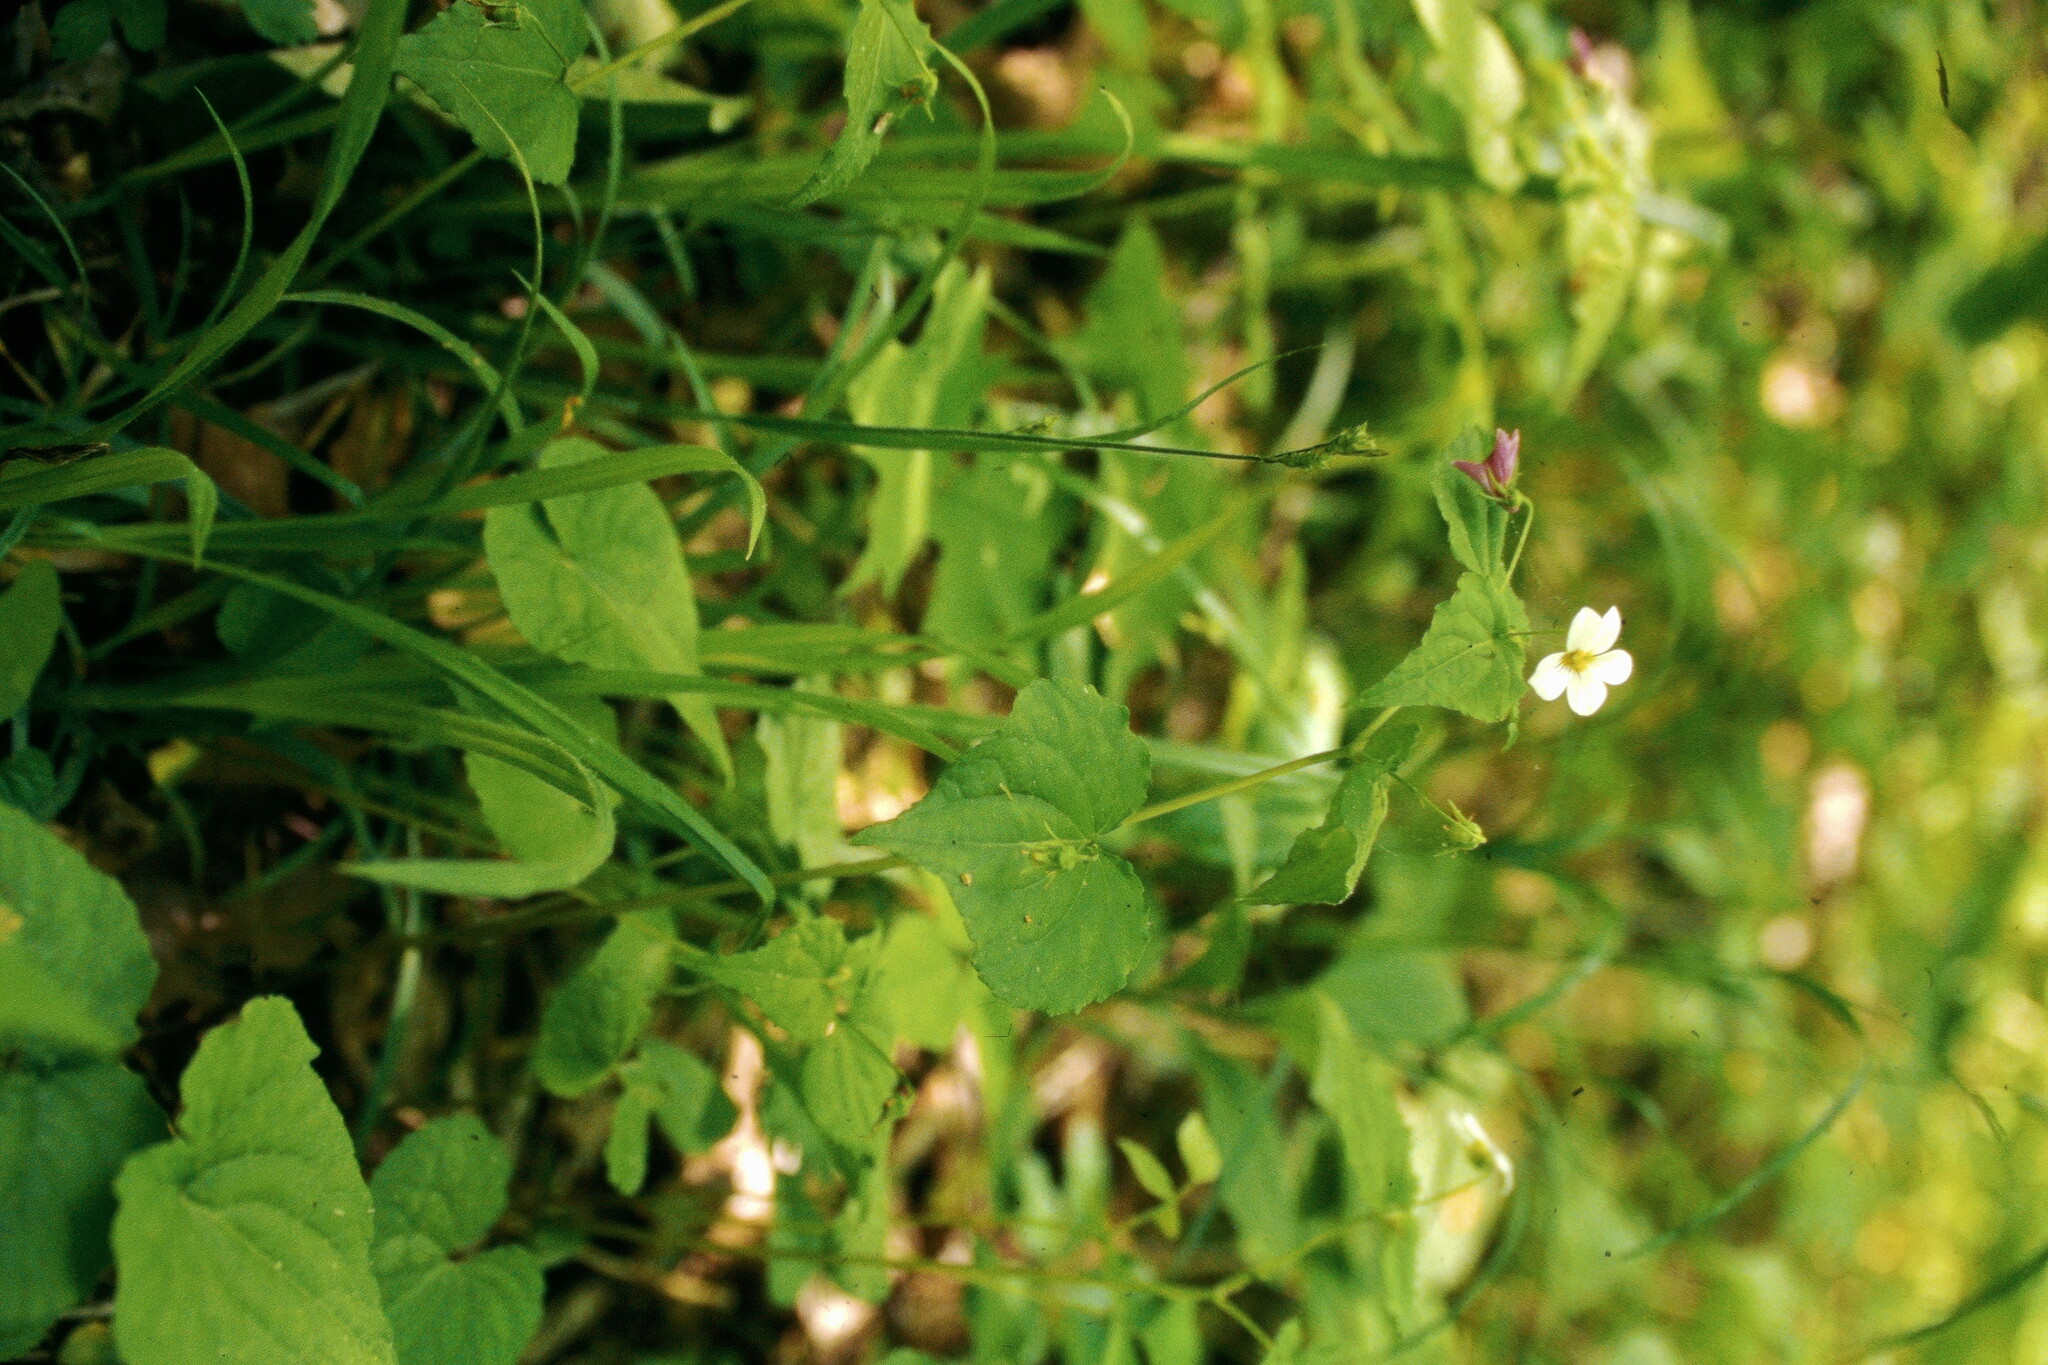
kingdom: Plantae
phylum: Tracheophyta
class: Magnoliopsida
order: Malpighiales
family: Violaceae
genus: Viola
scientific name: Viola canadensis
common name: Canada violet
